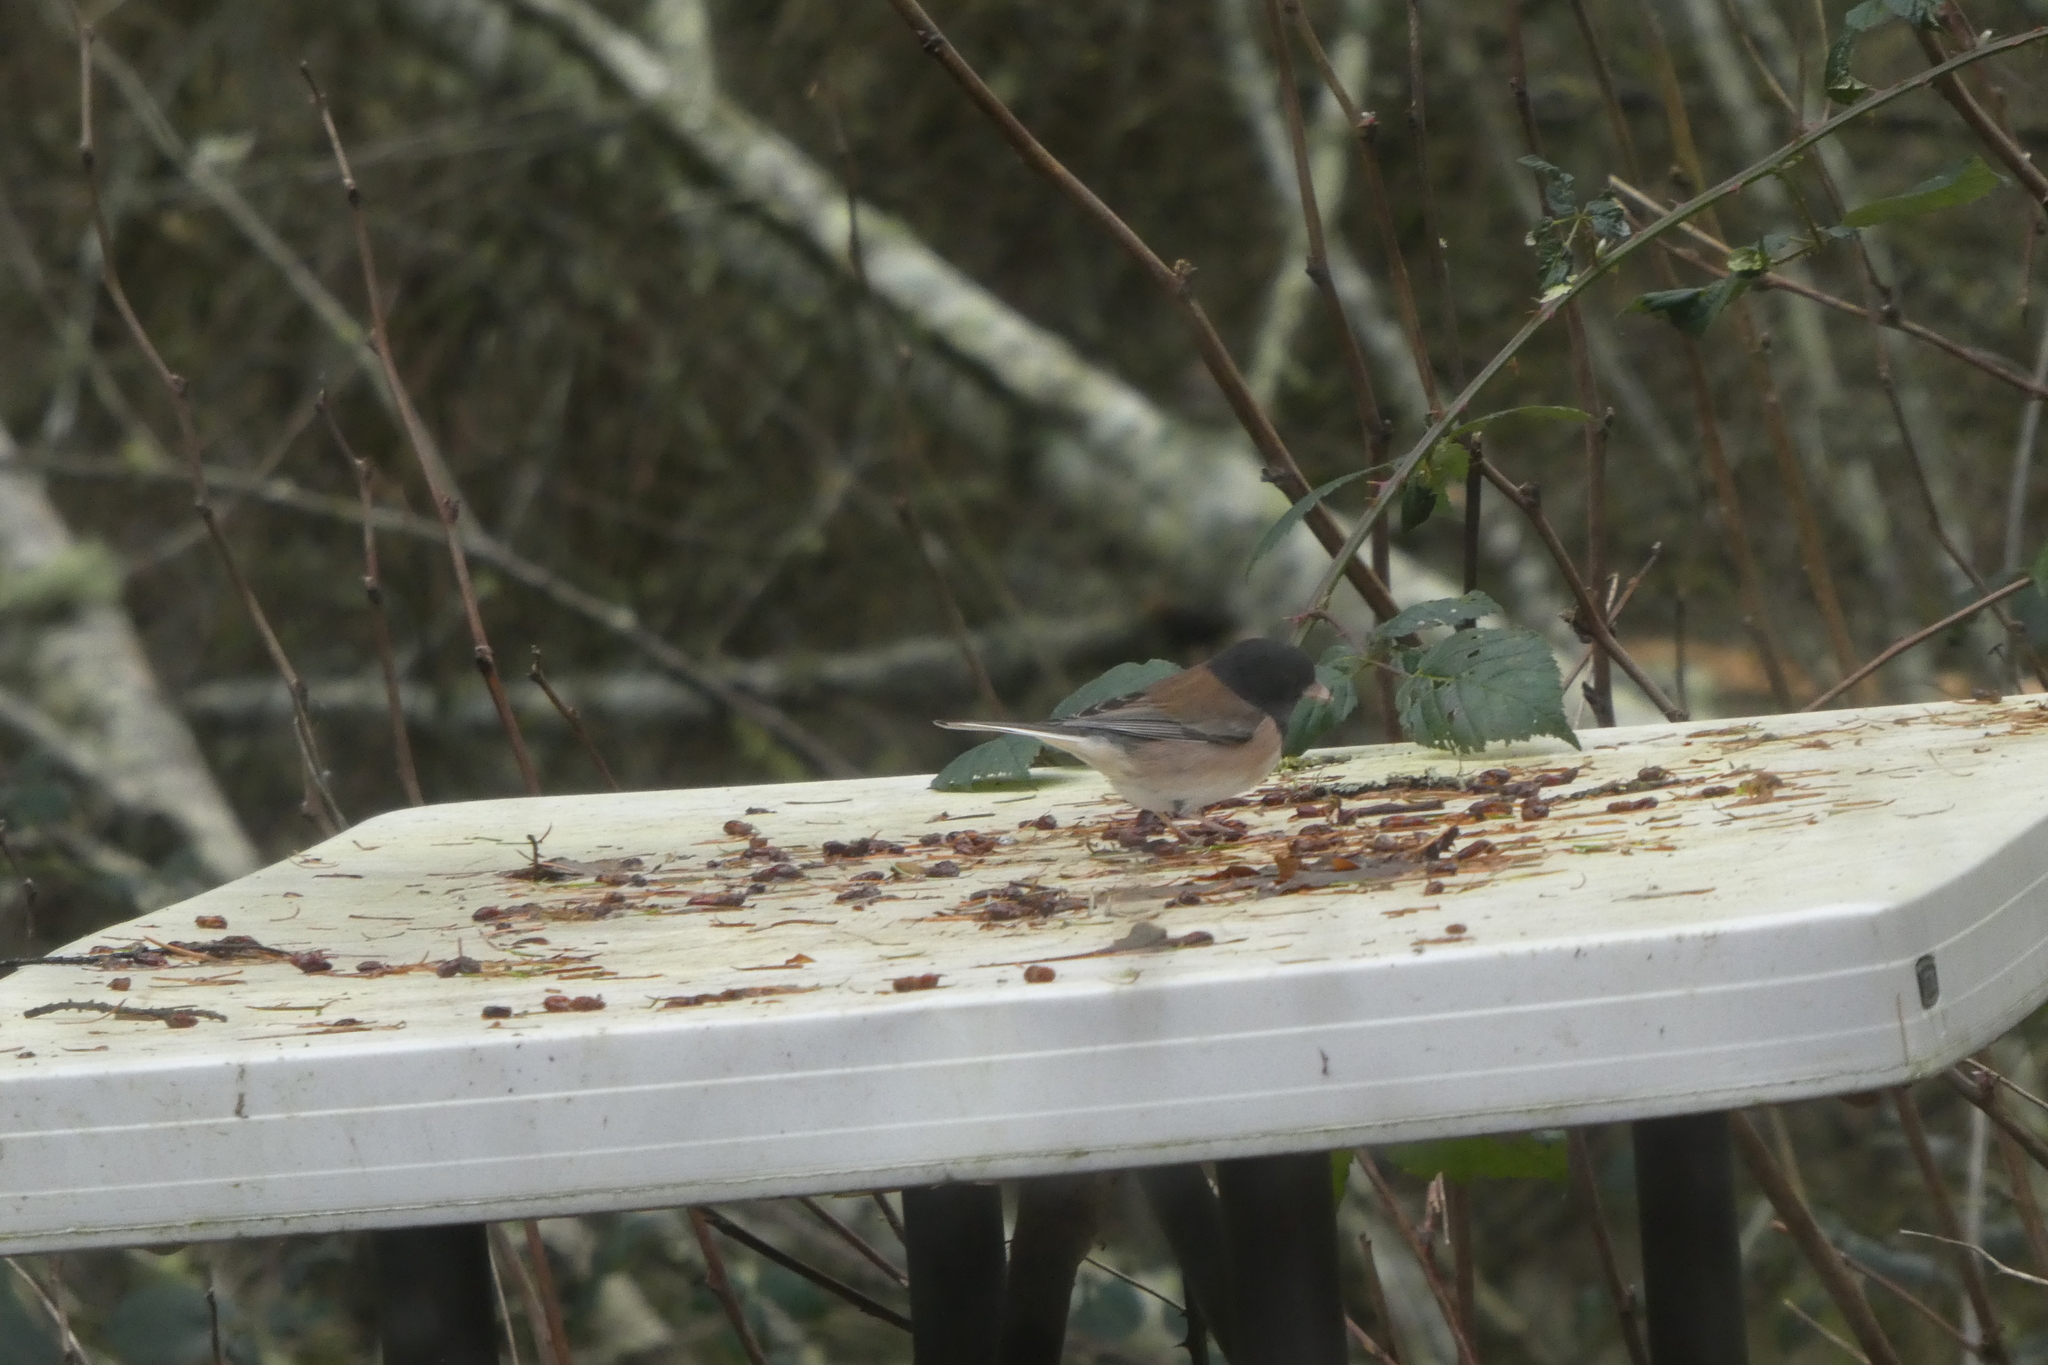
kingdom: Animalia
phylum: Chordata
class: Aves
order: Passeriformes
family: Passerellidae
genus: Junco
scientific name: Junco hyemalis
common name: Dark-eyed junco
